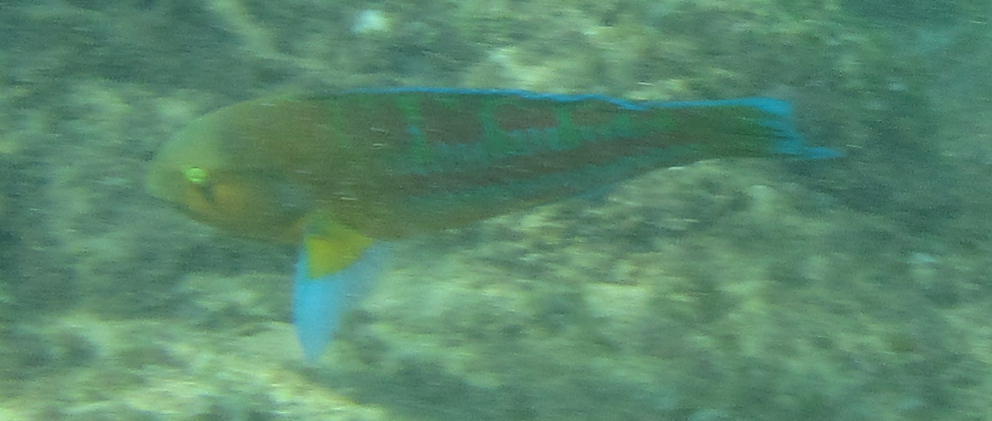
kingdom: Animalia
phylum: Chordata
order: Perciformes
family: Labridae
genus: Thalassoma
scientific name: Thalassoma trilobatum
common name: Christmas wrasse
